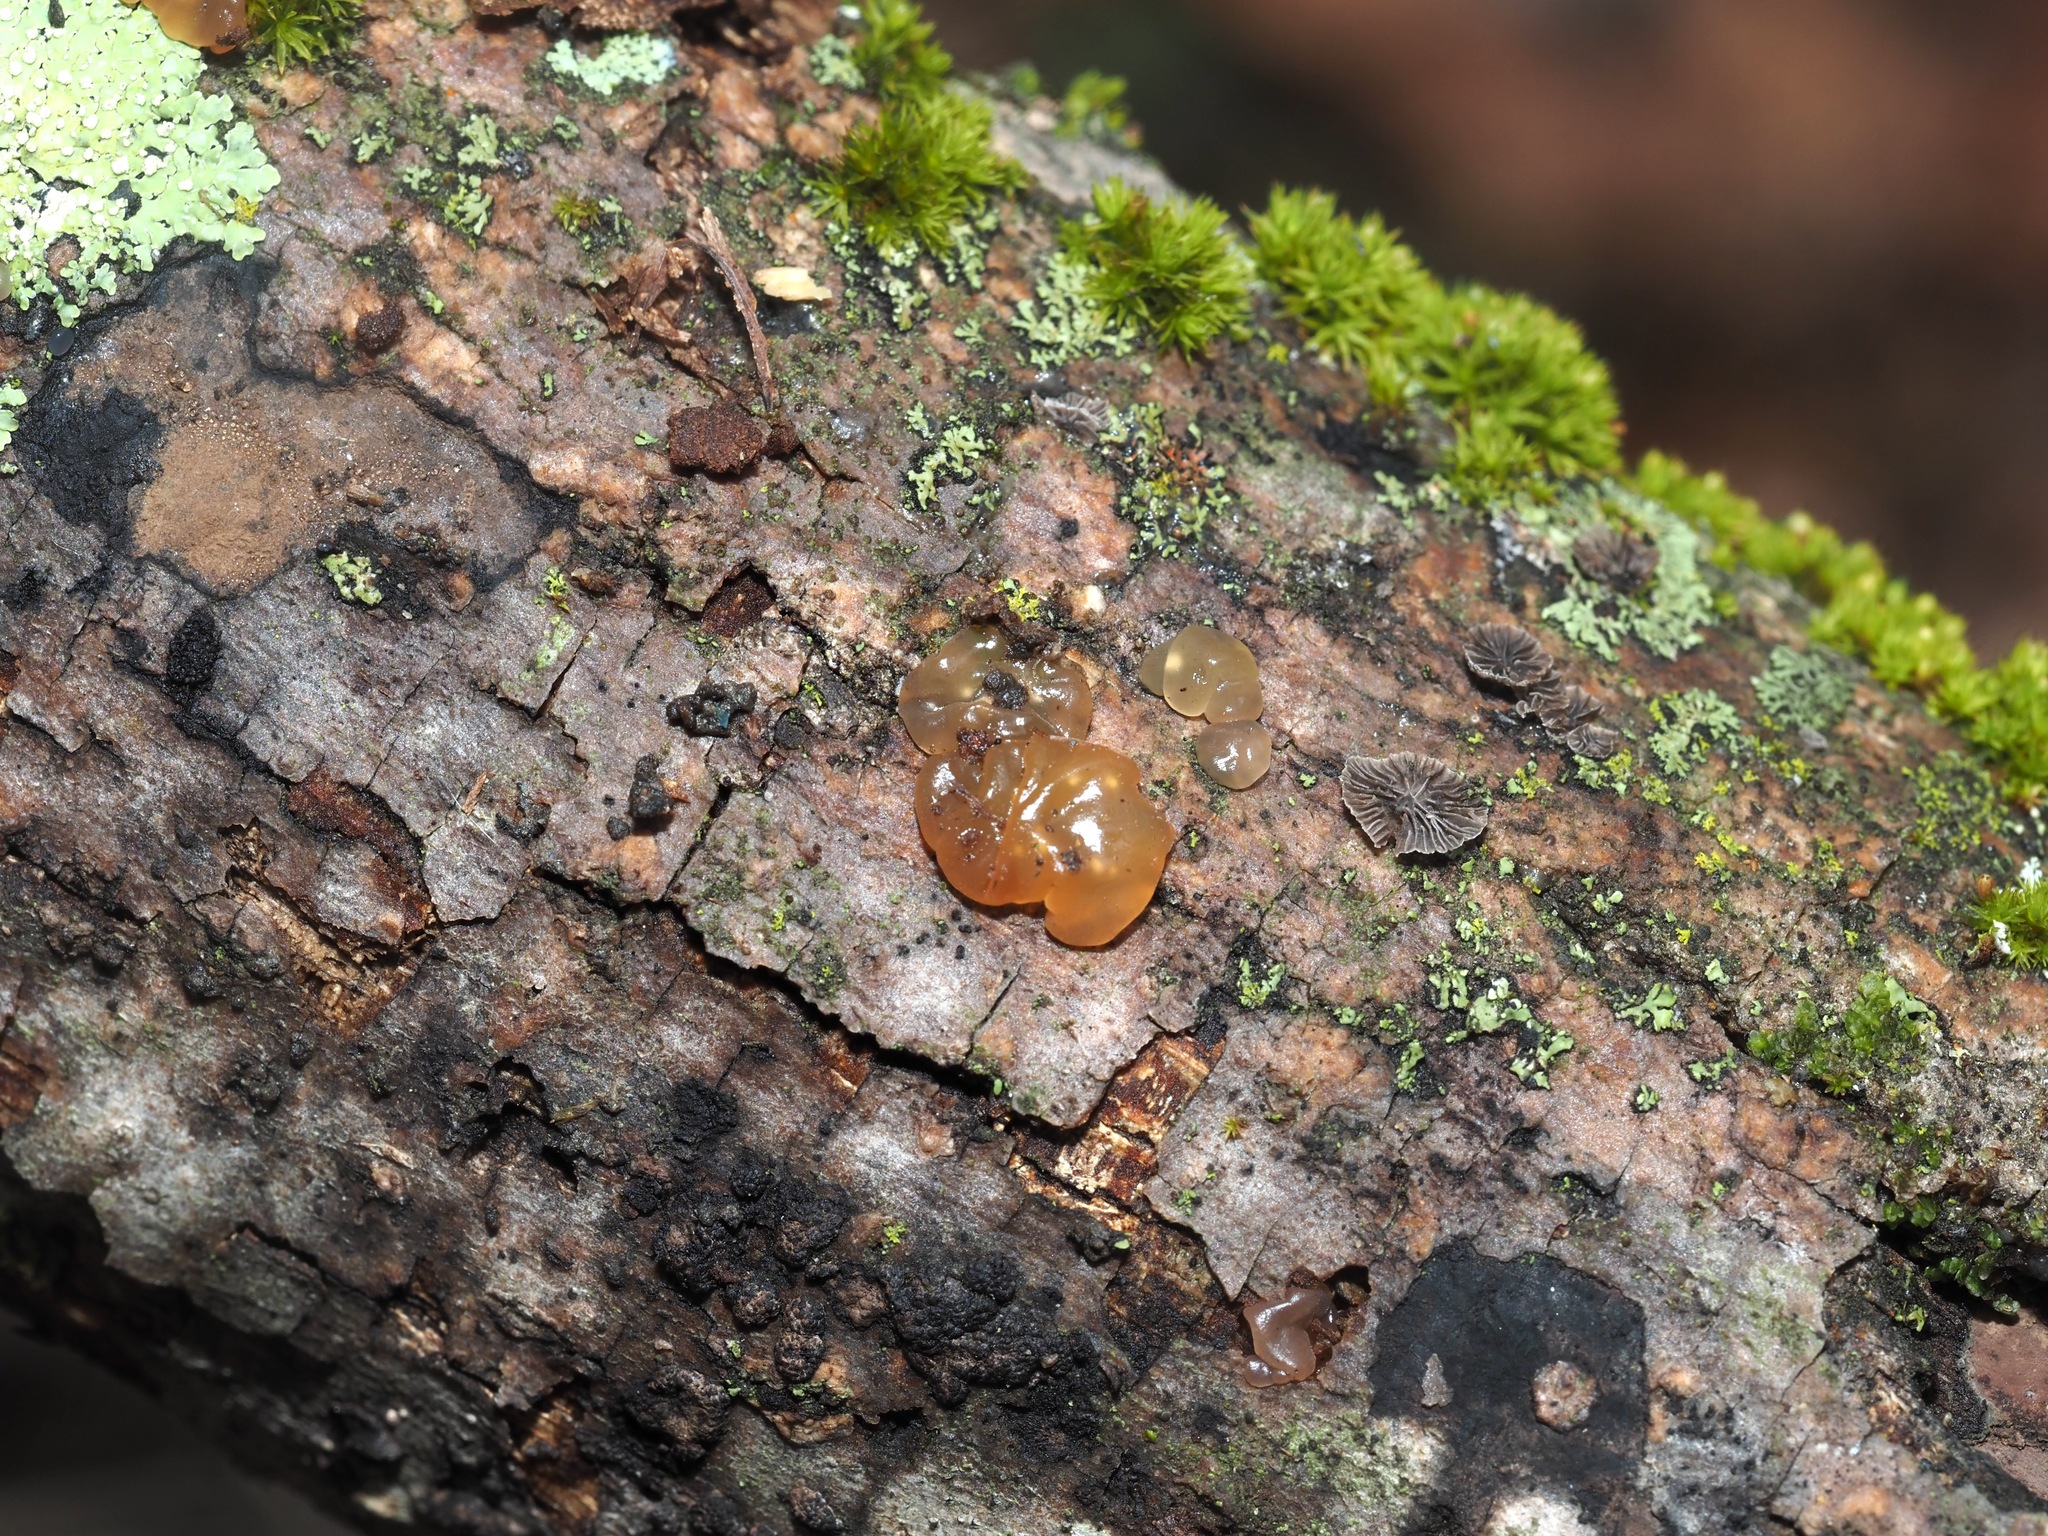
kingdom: Fungi
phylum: Basidiomycota
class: Agaricomycetes
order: Auriculariales
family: Hyaloriaceae
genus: Myxarium
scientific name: Myxarium nucleatum
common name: Crystal brain fungus
